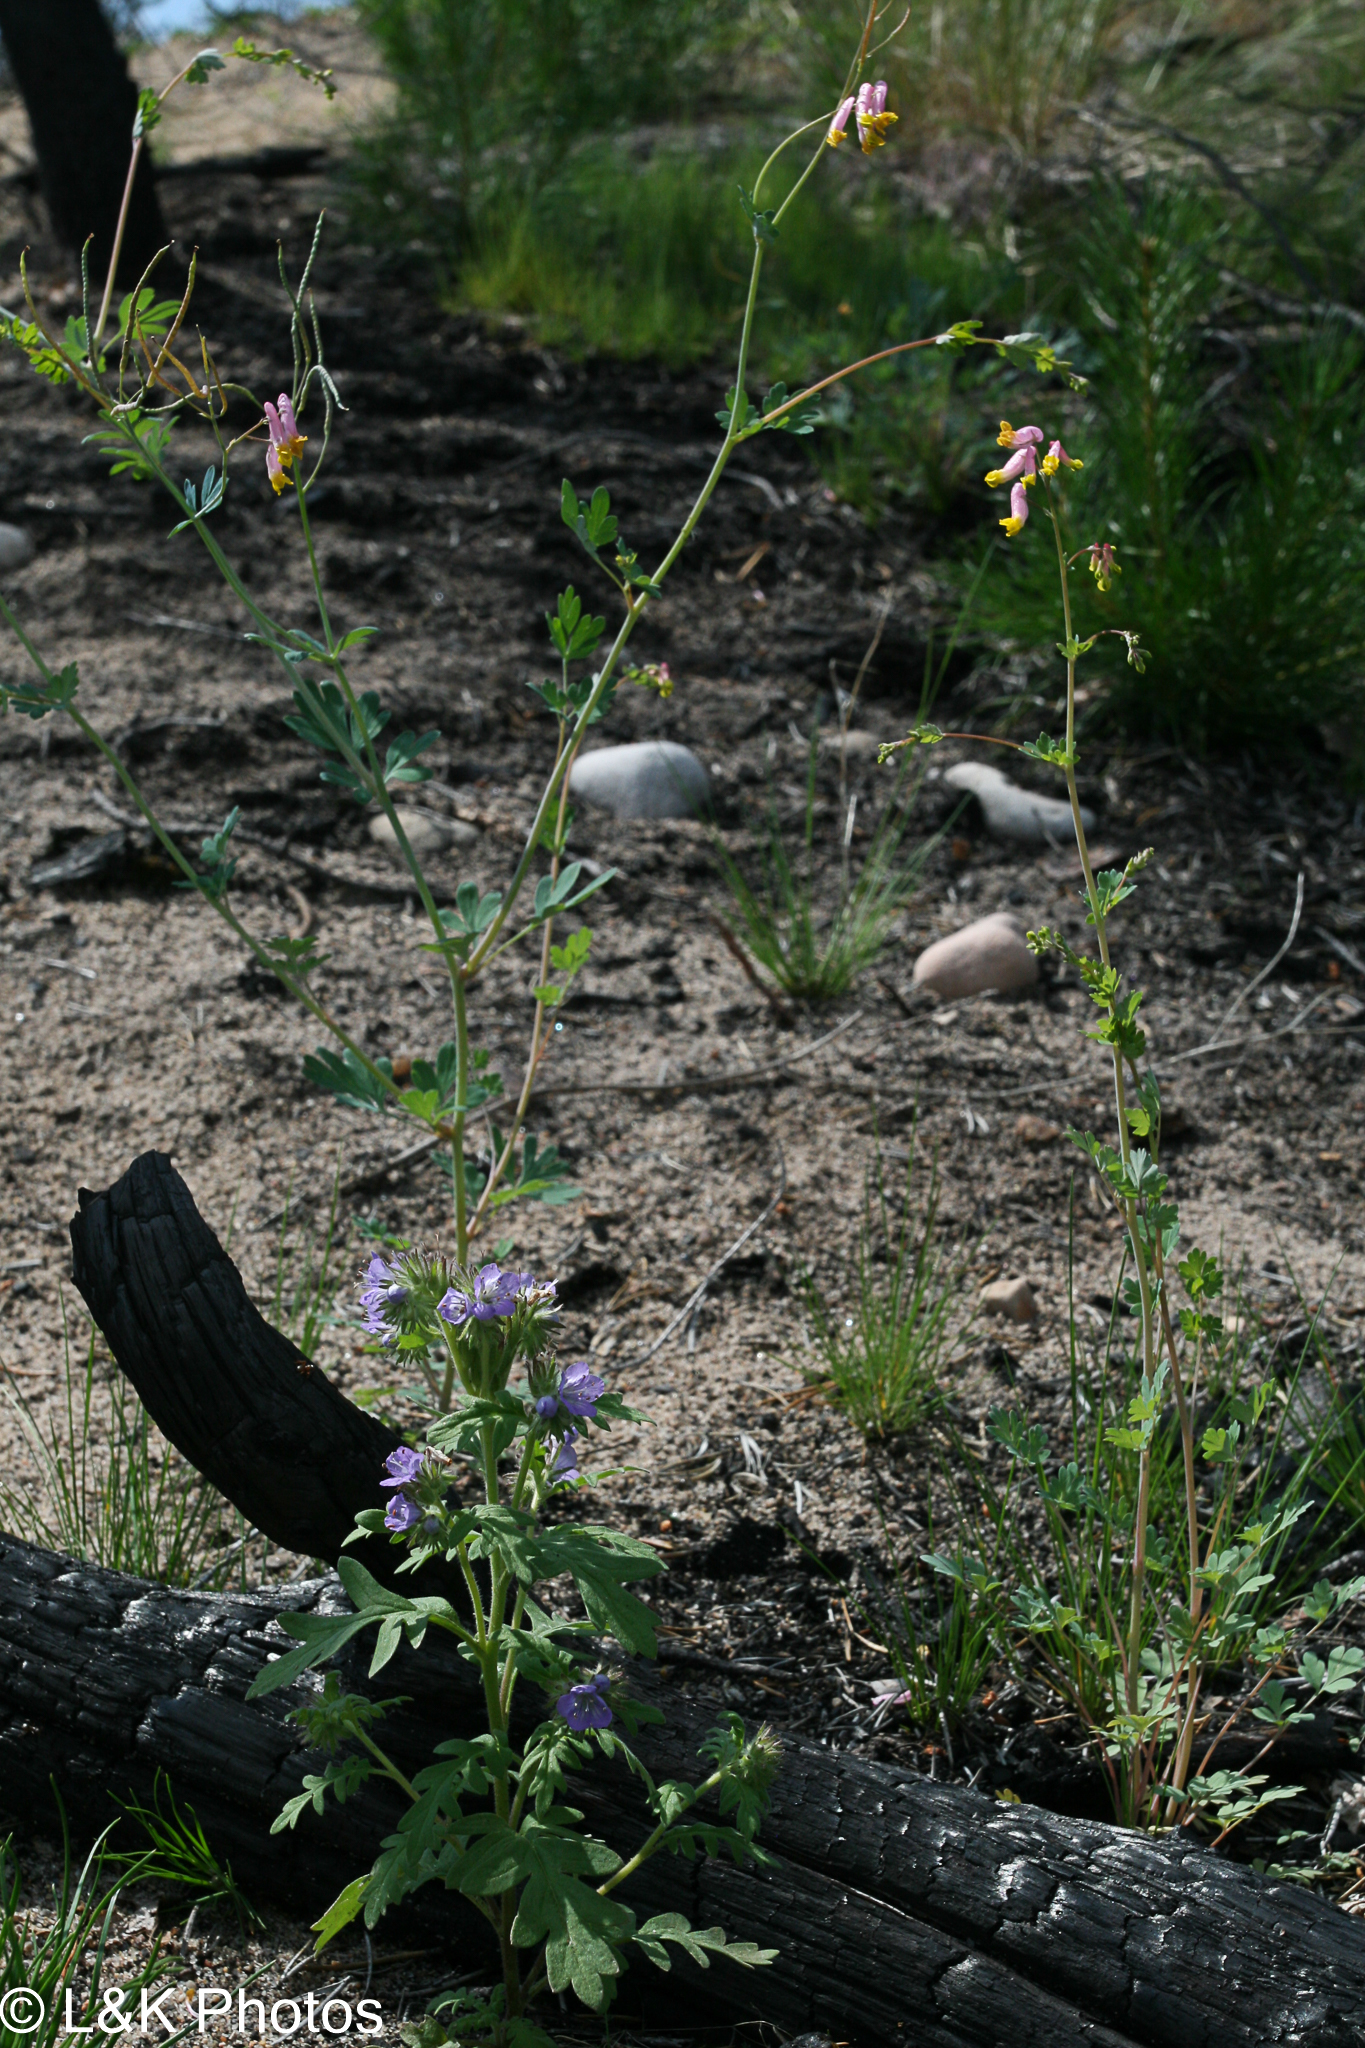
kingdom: Plantae
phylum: Tracheophyta
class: Magnoliopsida
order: Ranunculales
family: Papaveraceae
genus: Capnoides
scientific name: Capnoides sempervirens
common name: Rock harlequin
